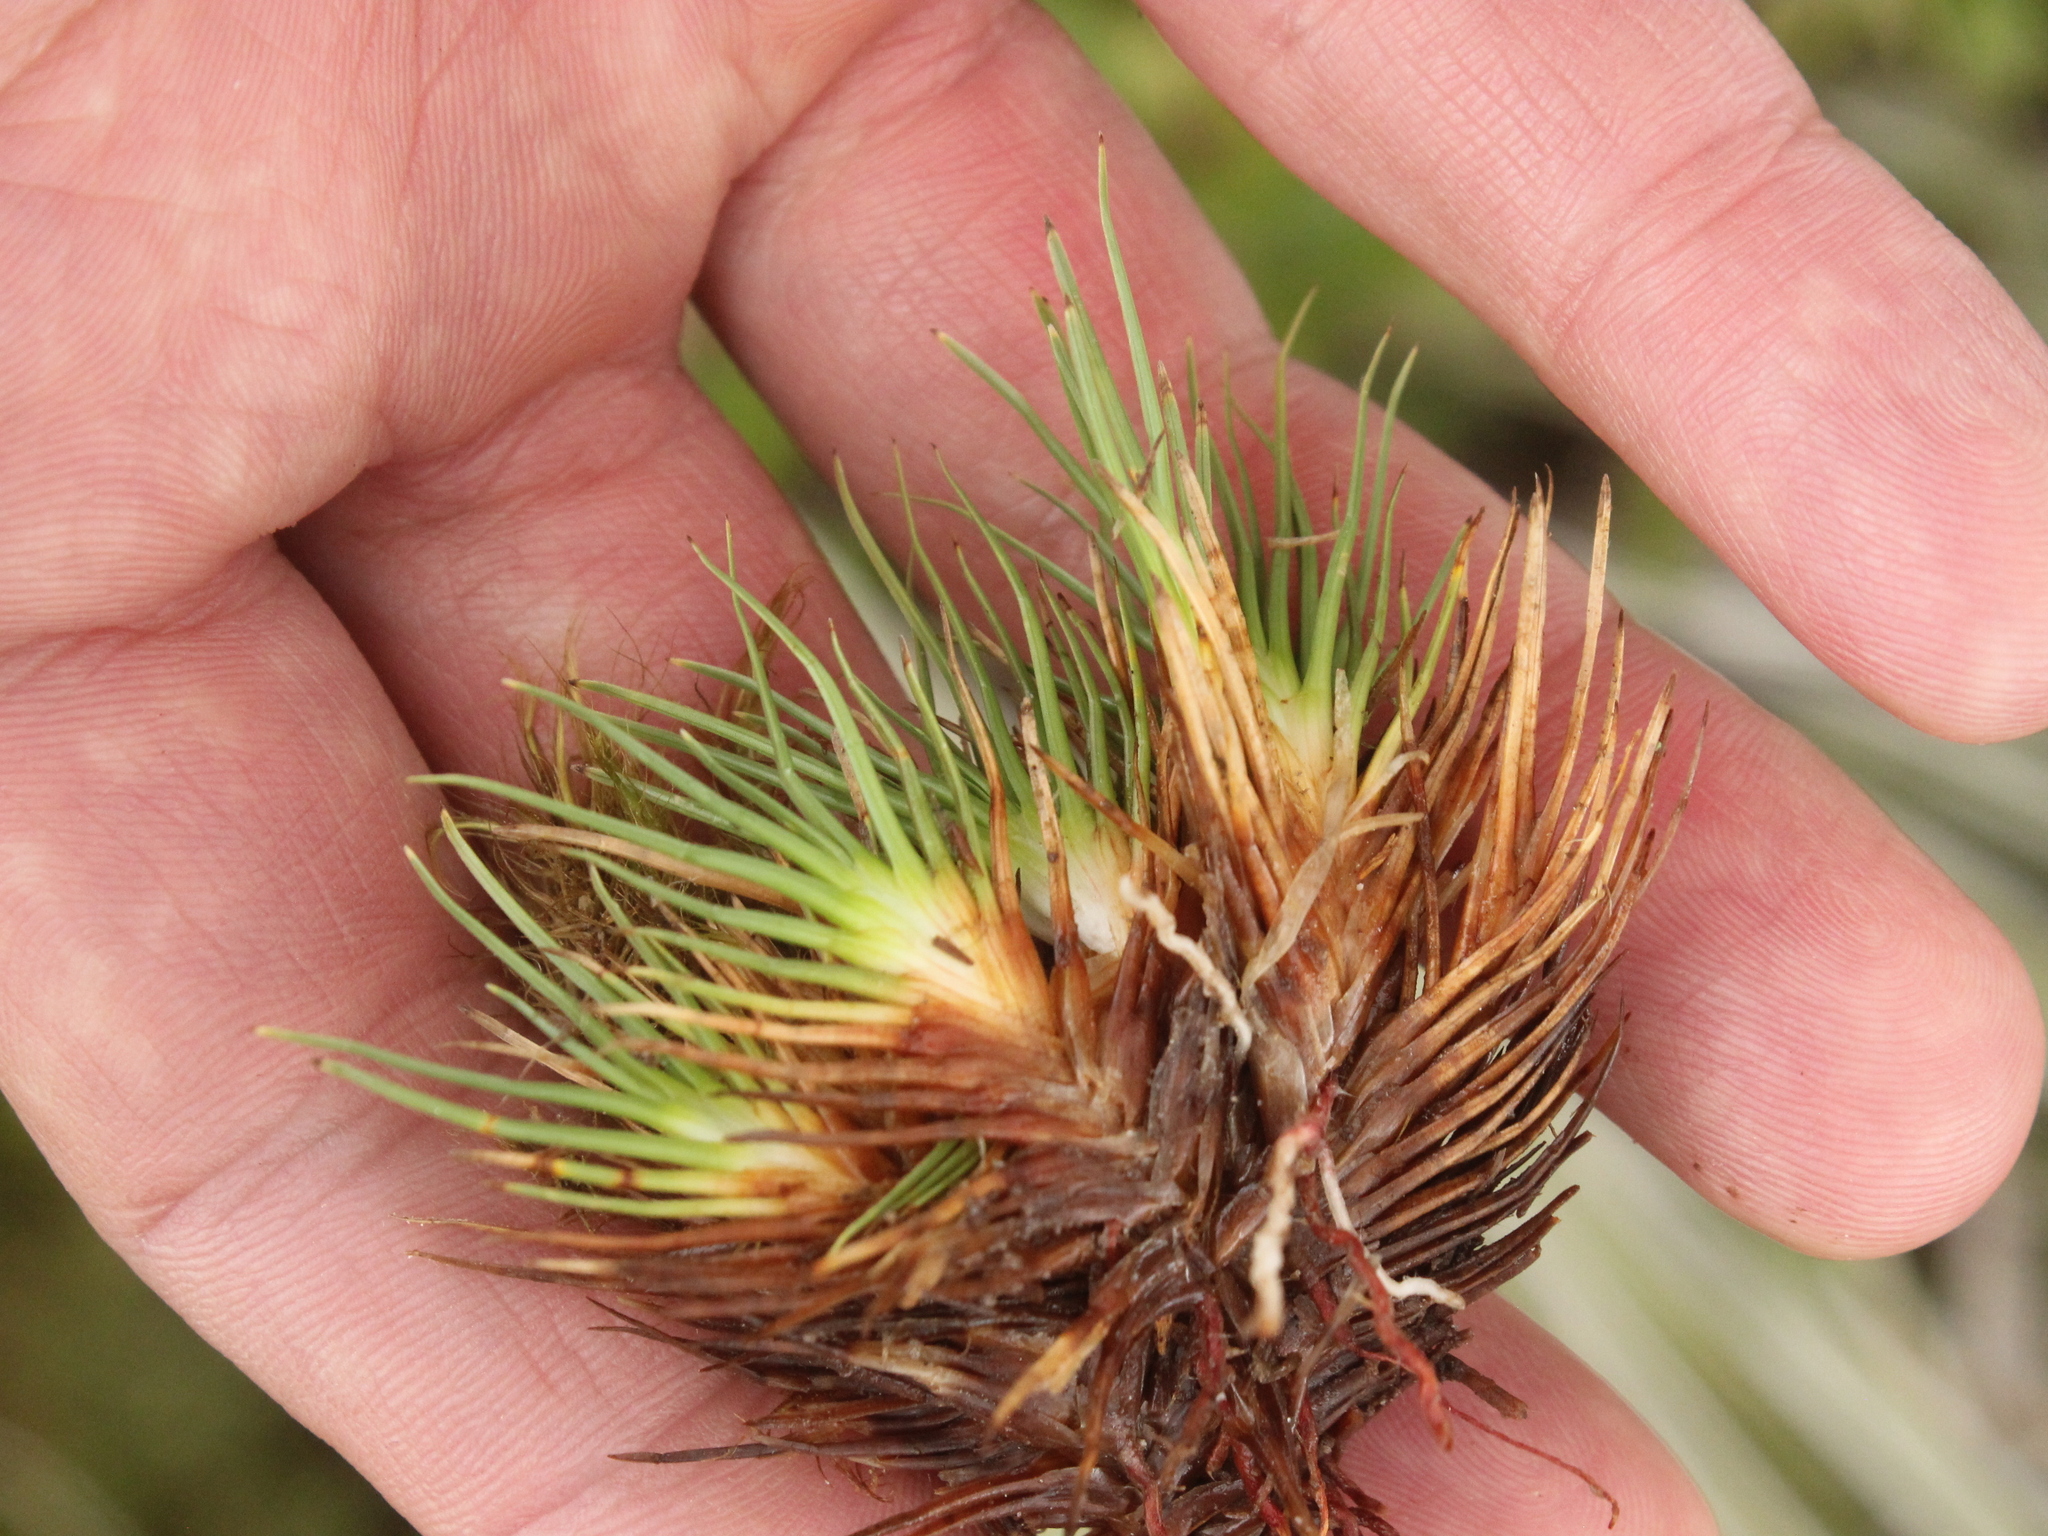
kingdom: Plantae
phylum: Tracheophyta
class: Liliopsida
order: Poales
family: Cyperaceae
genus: Oreobolus
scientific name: Oreobolus pectinatus
